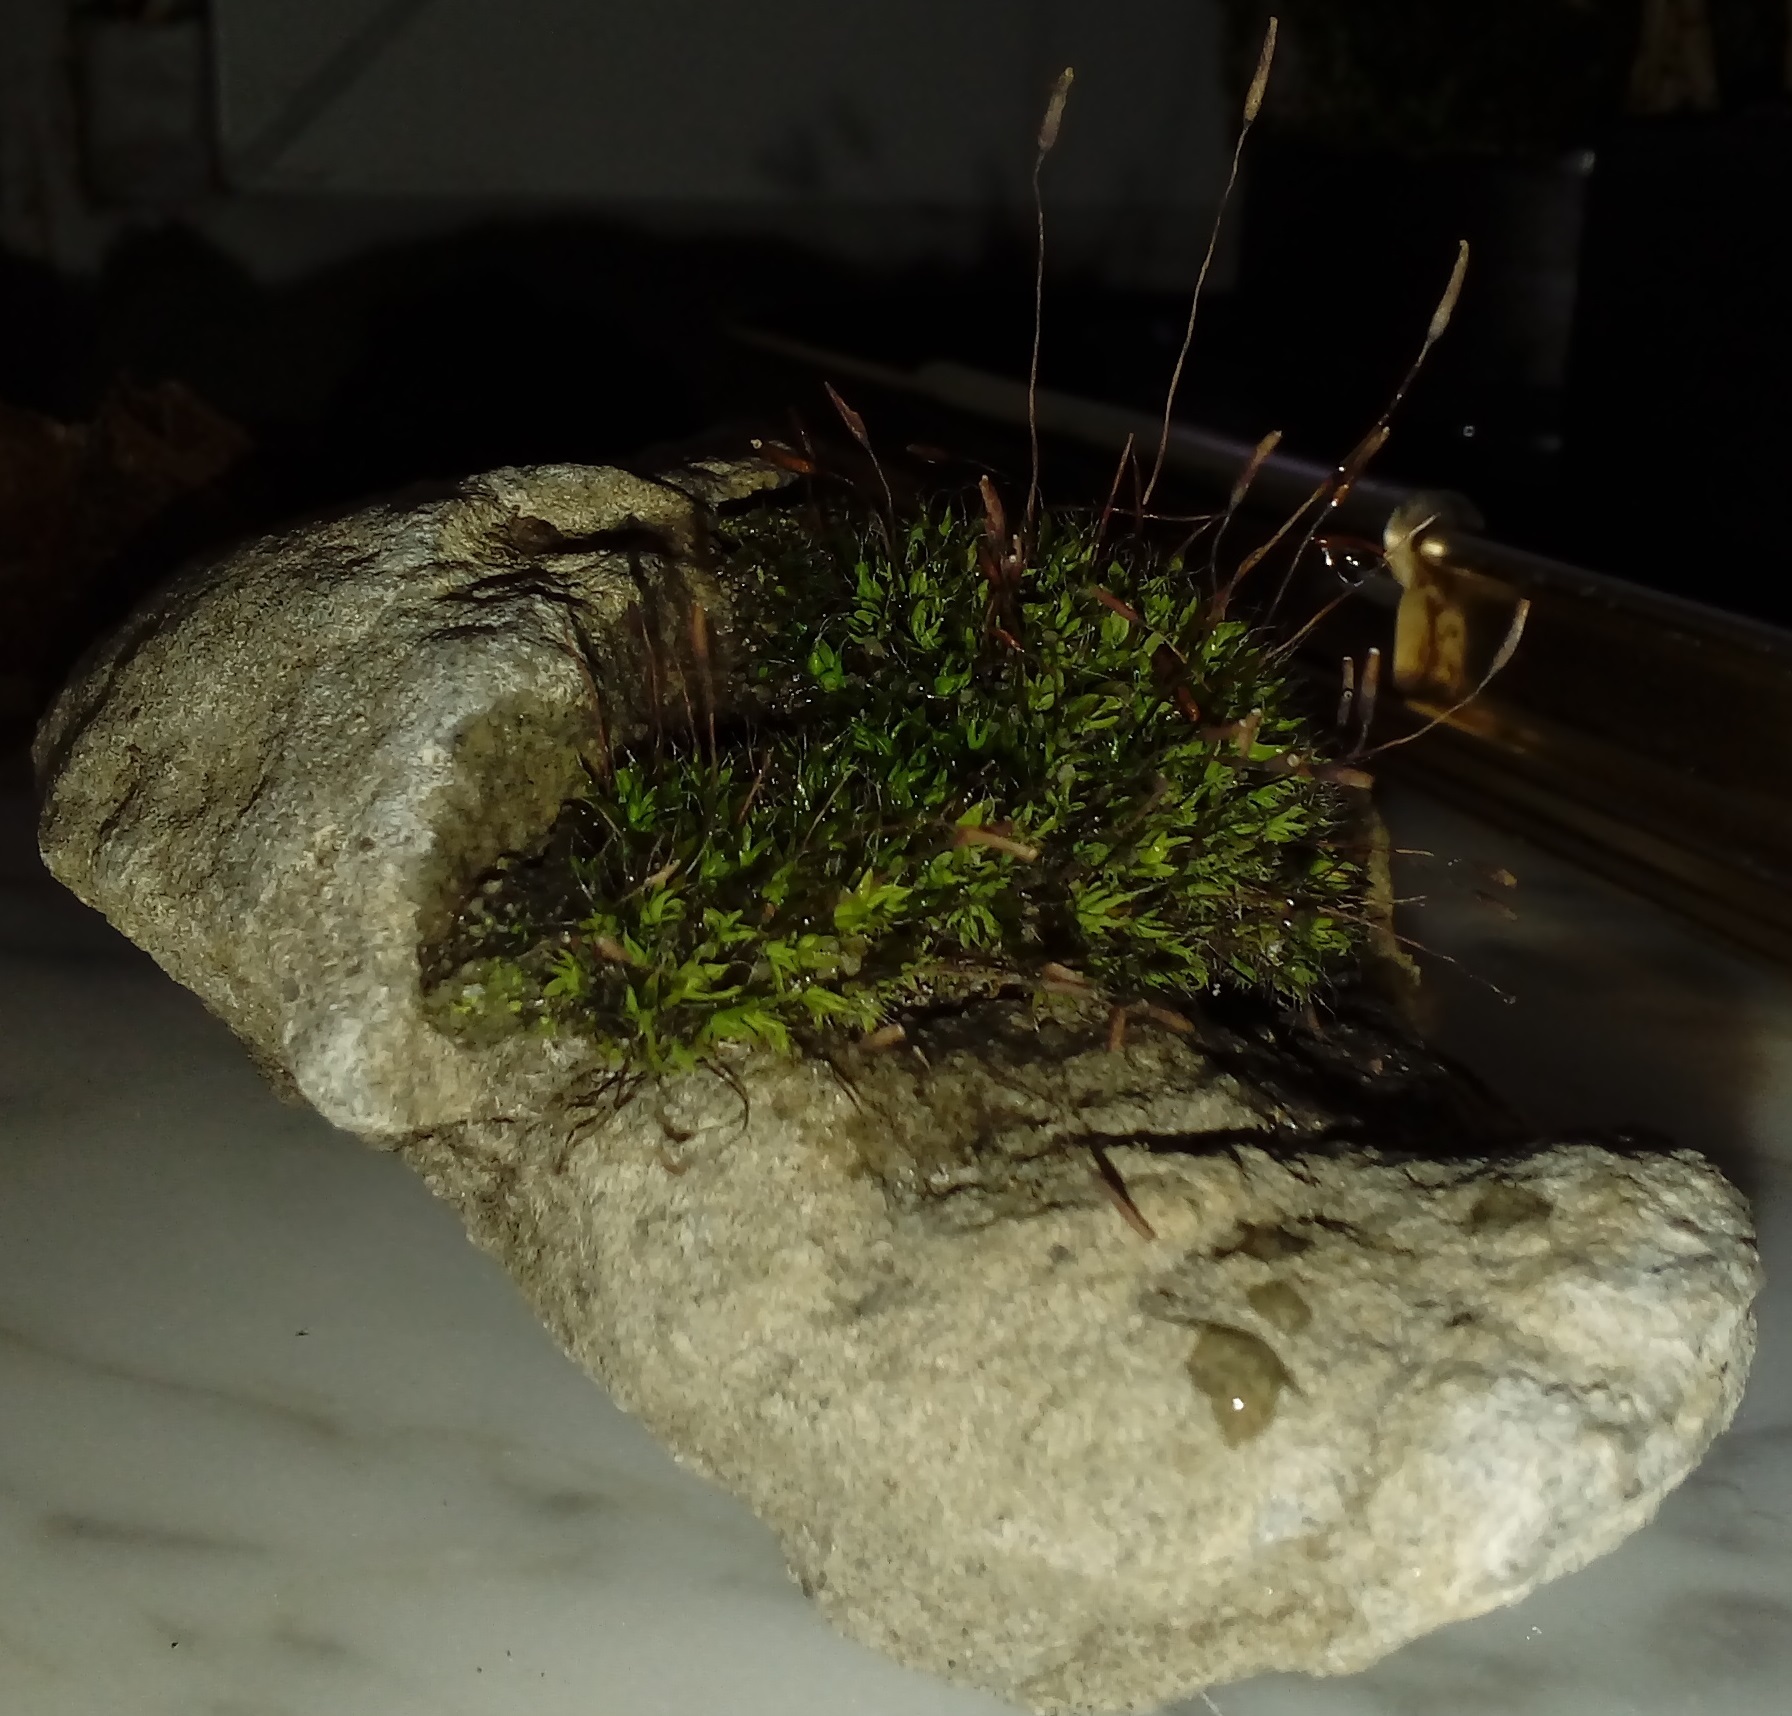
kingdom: Plantae
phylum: Bryophyta
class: Bryopsida
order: Pottiales
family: Pottiaceae
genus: Tortula
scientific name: Tortula muralis
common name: Wall screw-moss
